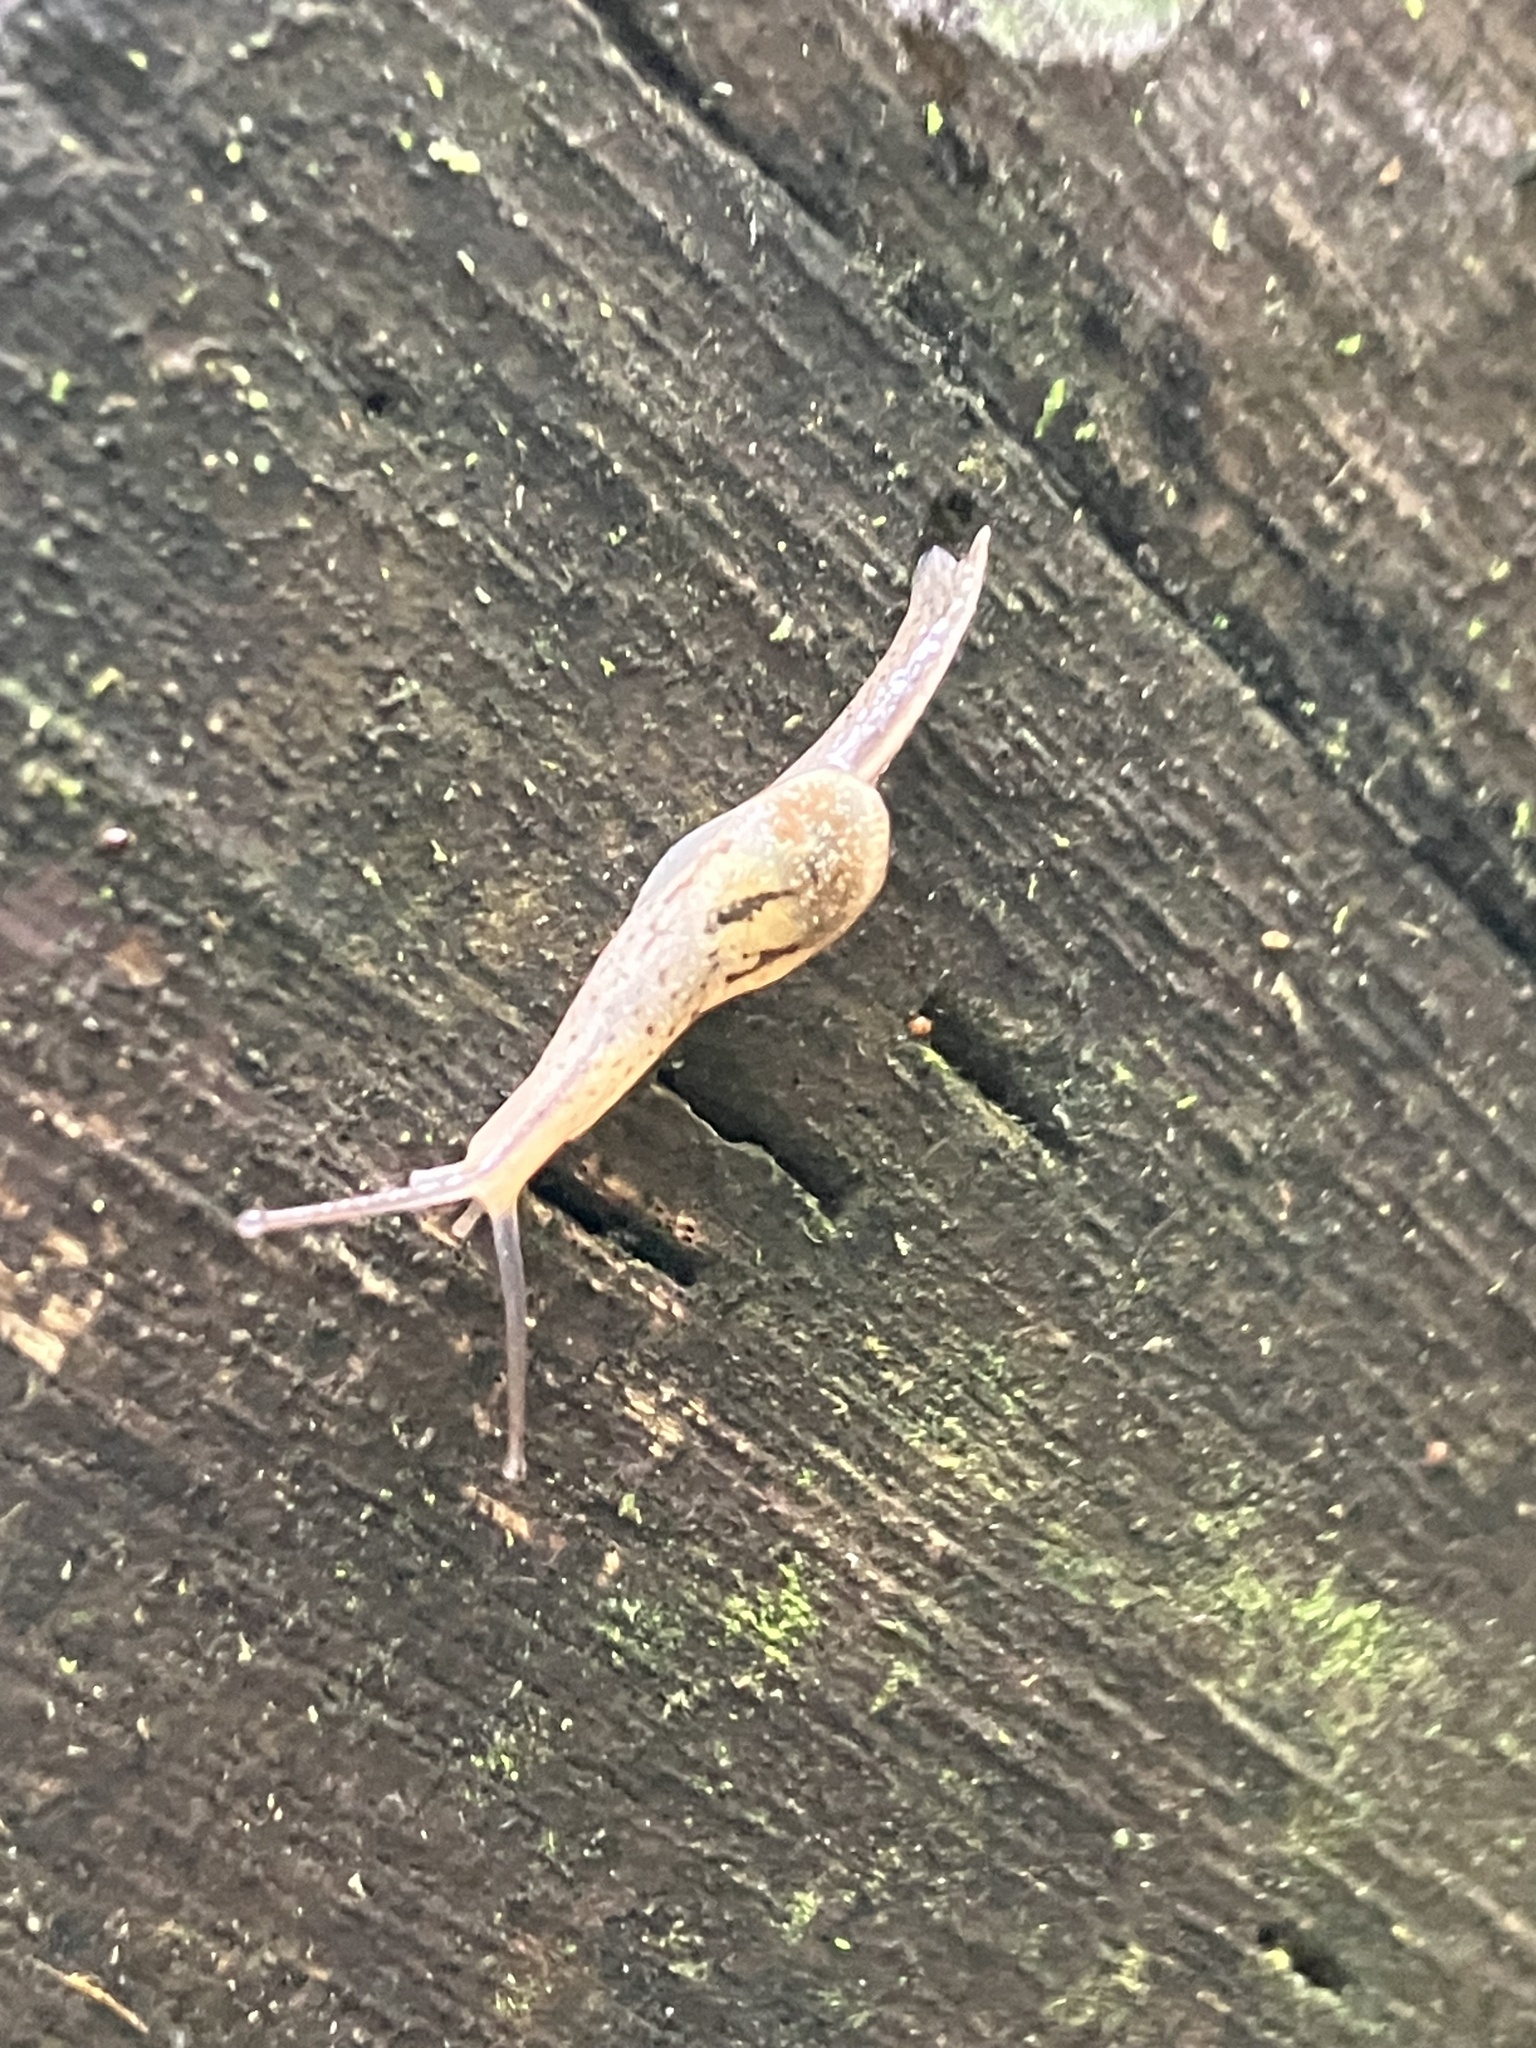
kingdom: Animalia
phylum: Mollusca
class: Gastropoda
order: Stylommatophora
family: Ariophantidae
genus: Parmarion
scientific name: Parmarion martensi
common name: Semi-slug
